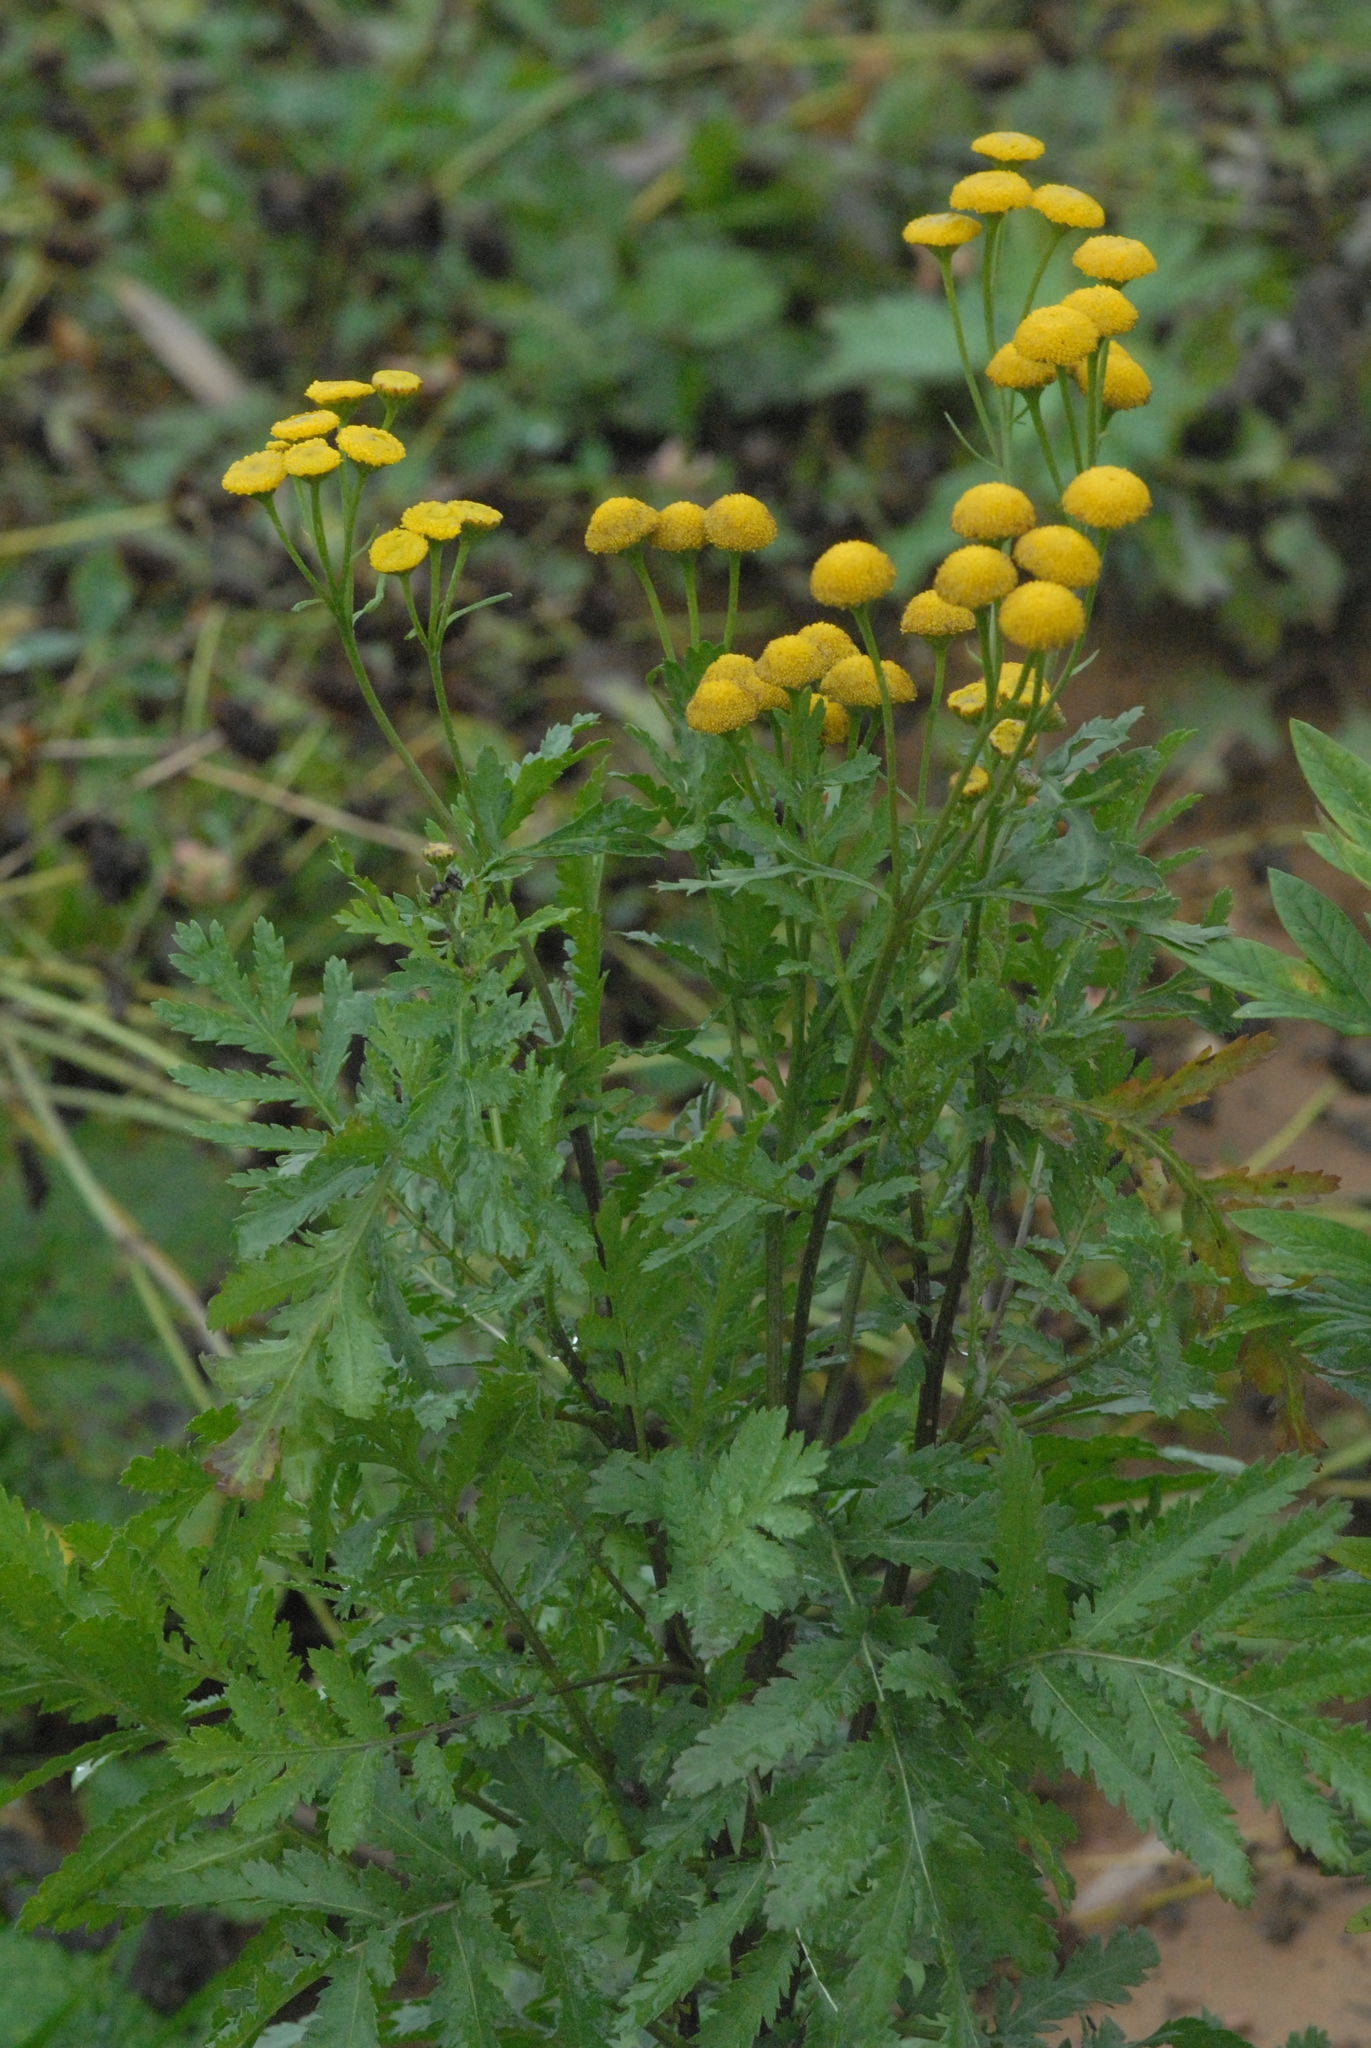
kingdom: Plantae
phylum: Tracheophyta
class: Magnoliopsida
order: Asterales
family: Asteraceae
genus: Tanacetum
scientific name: Tanacetum vulgare
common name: Common tansy
